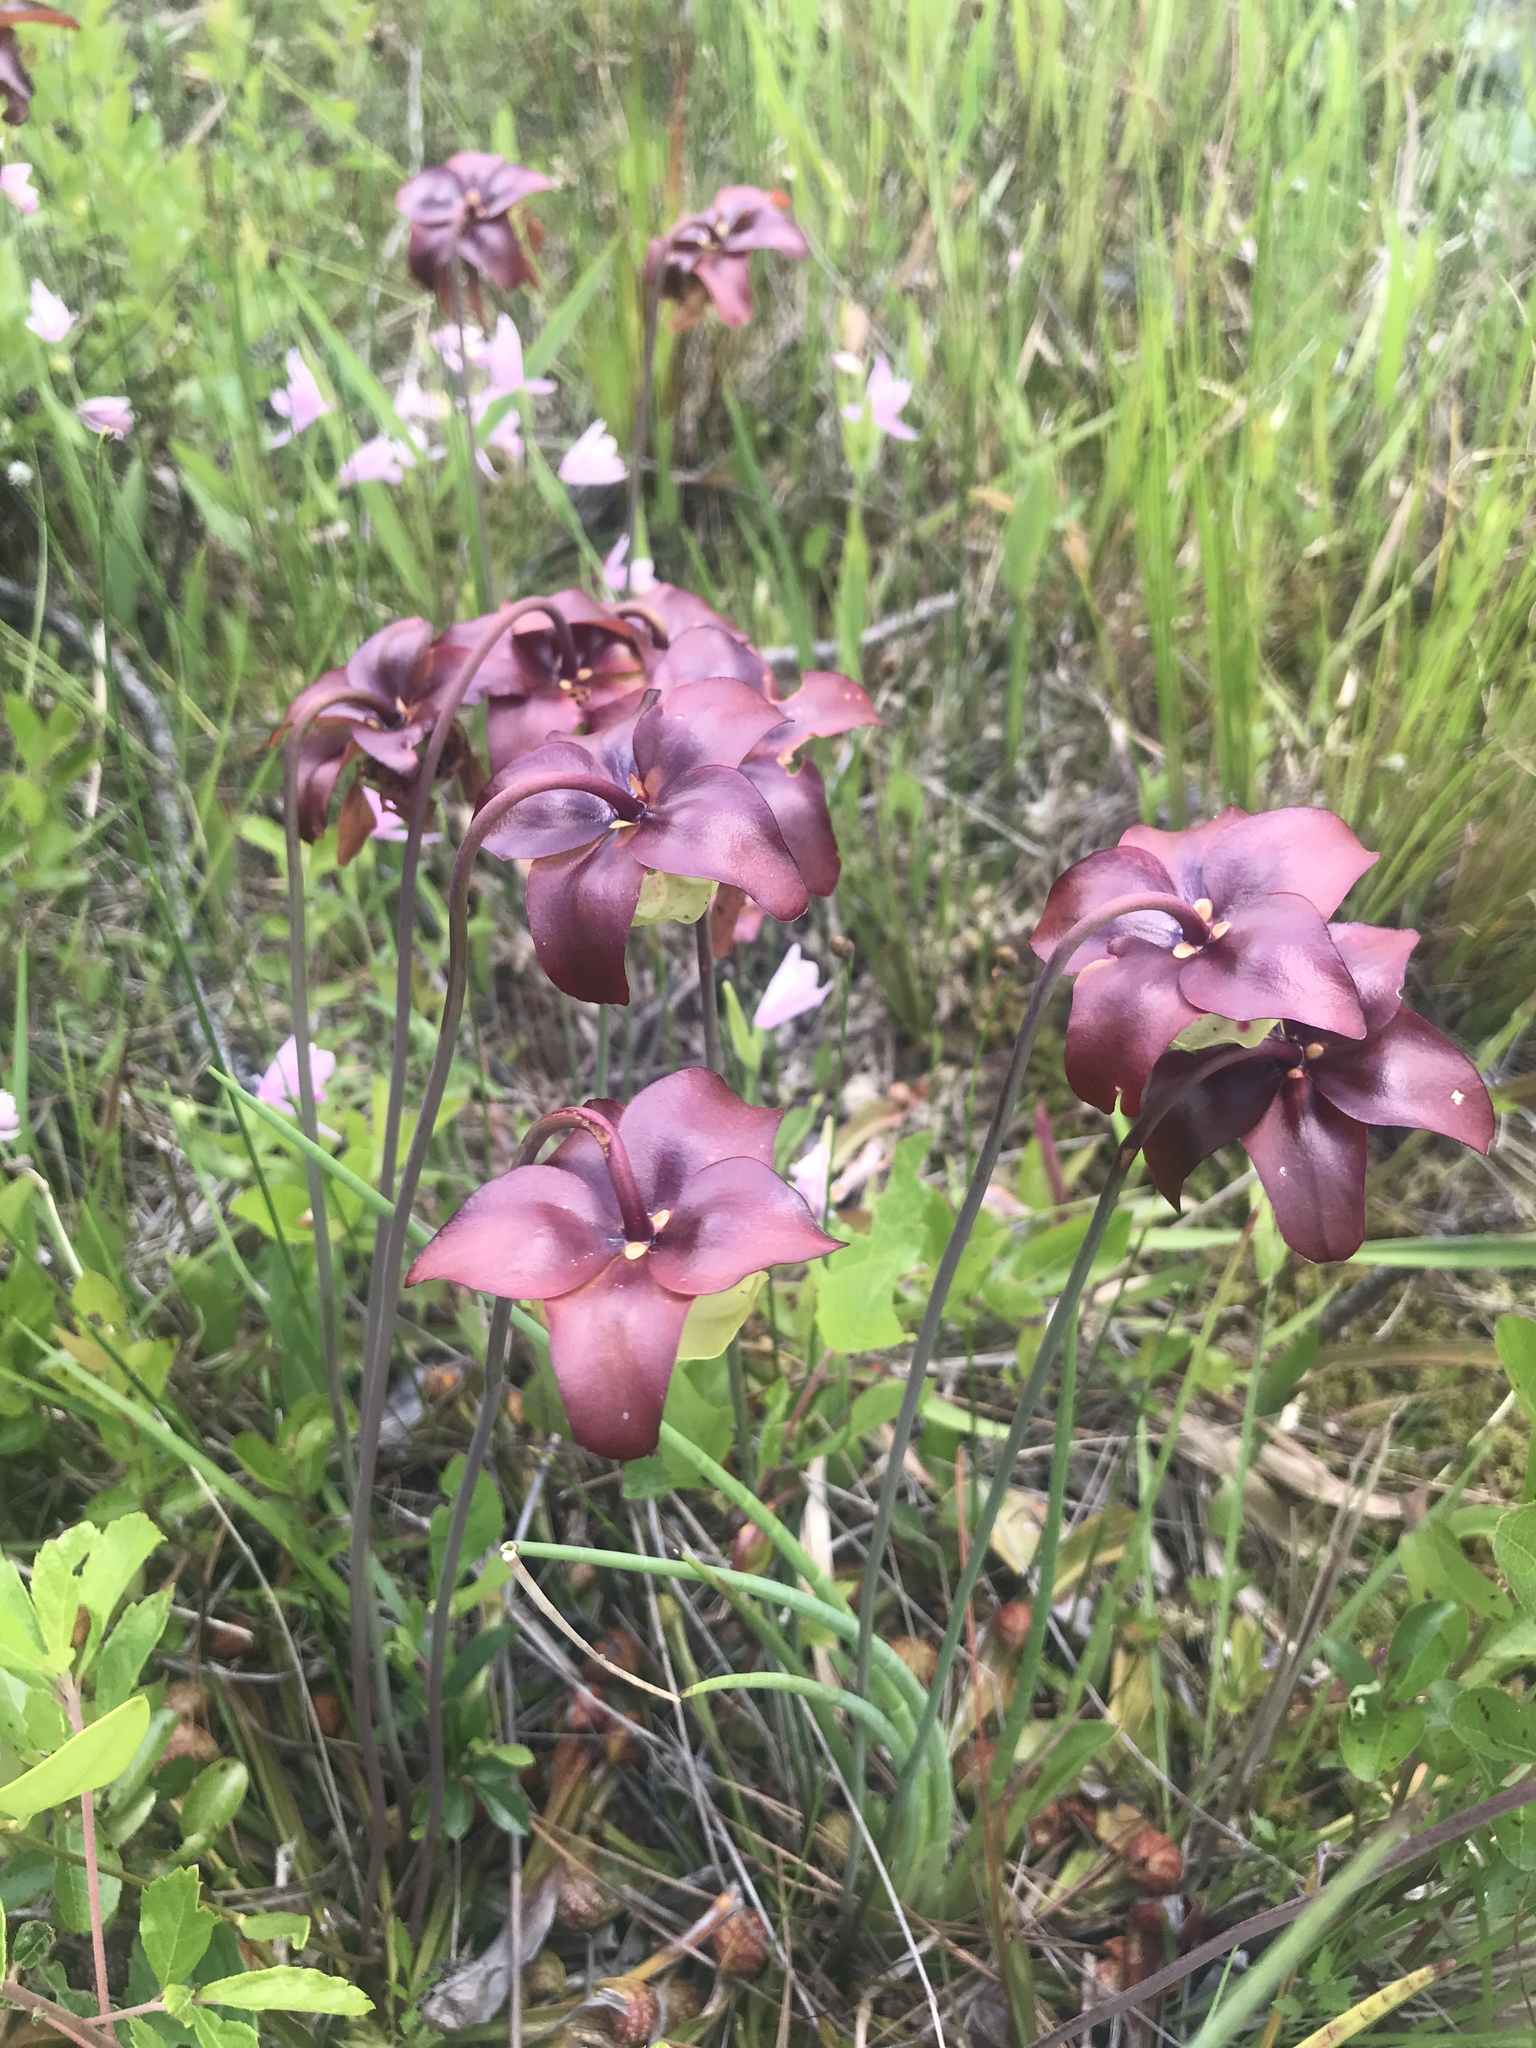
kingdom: Plantae
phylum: Tracheophyta
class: Magnoliopsida
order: Ericales
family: Sarraceniaceae
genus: Sarracenia
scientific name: Sarracenia psittacina
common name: Parrot pitcherplant
